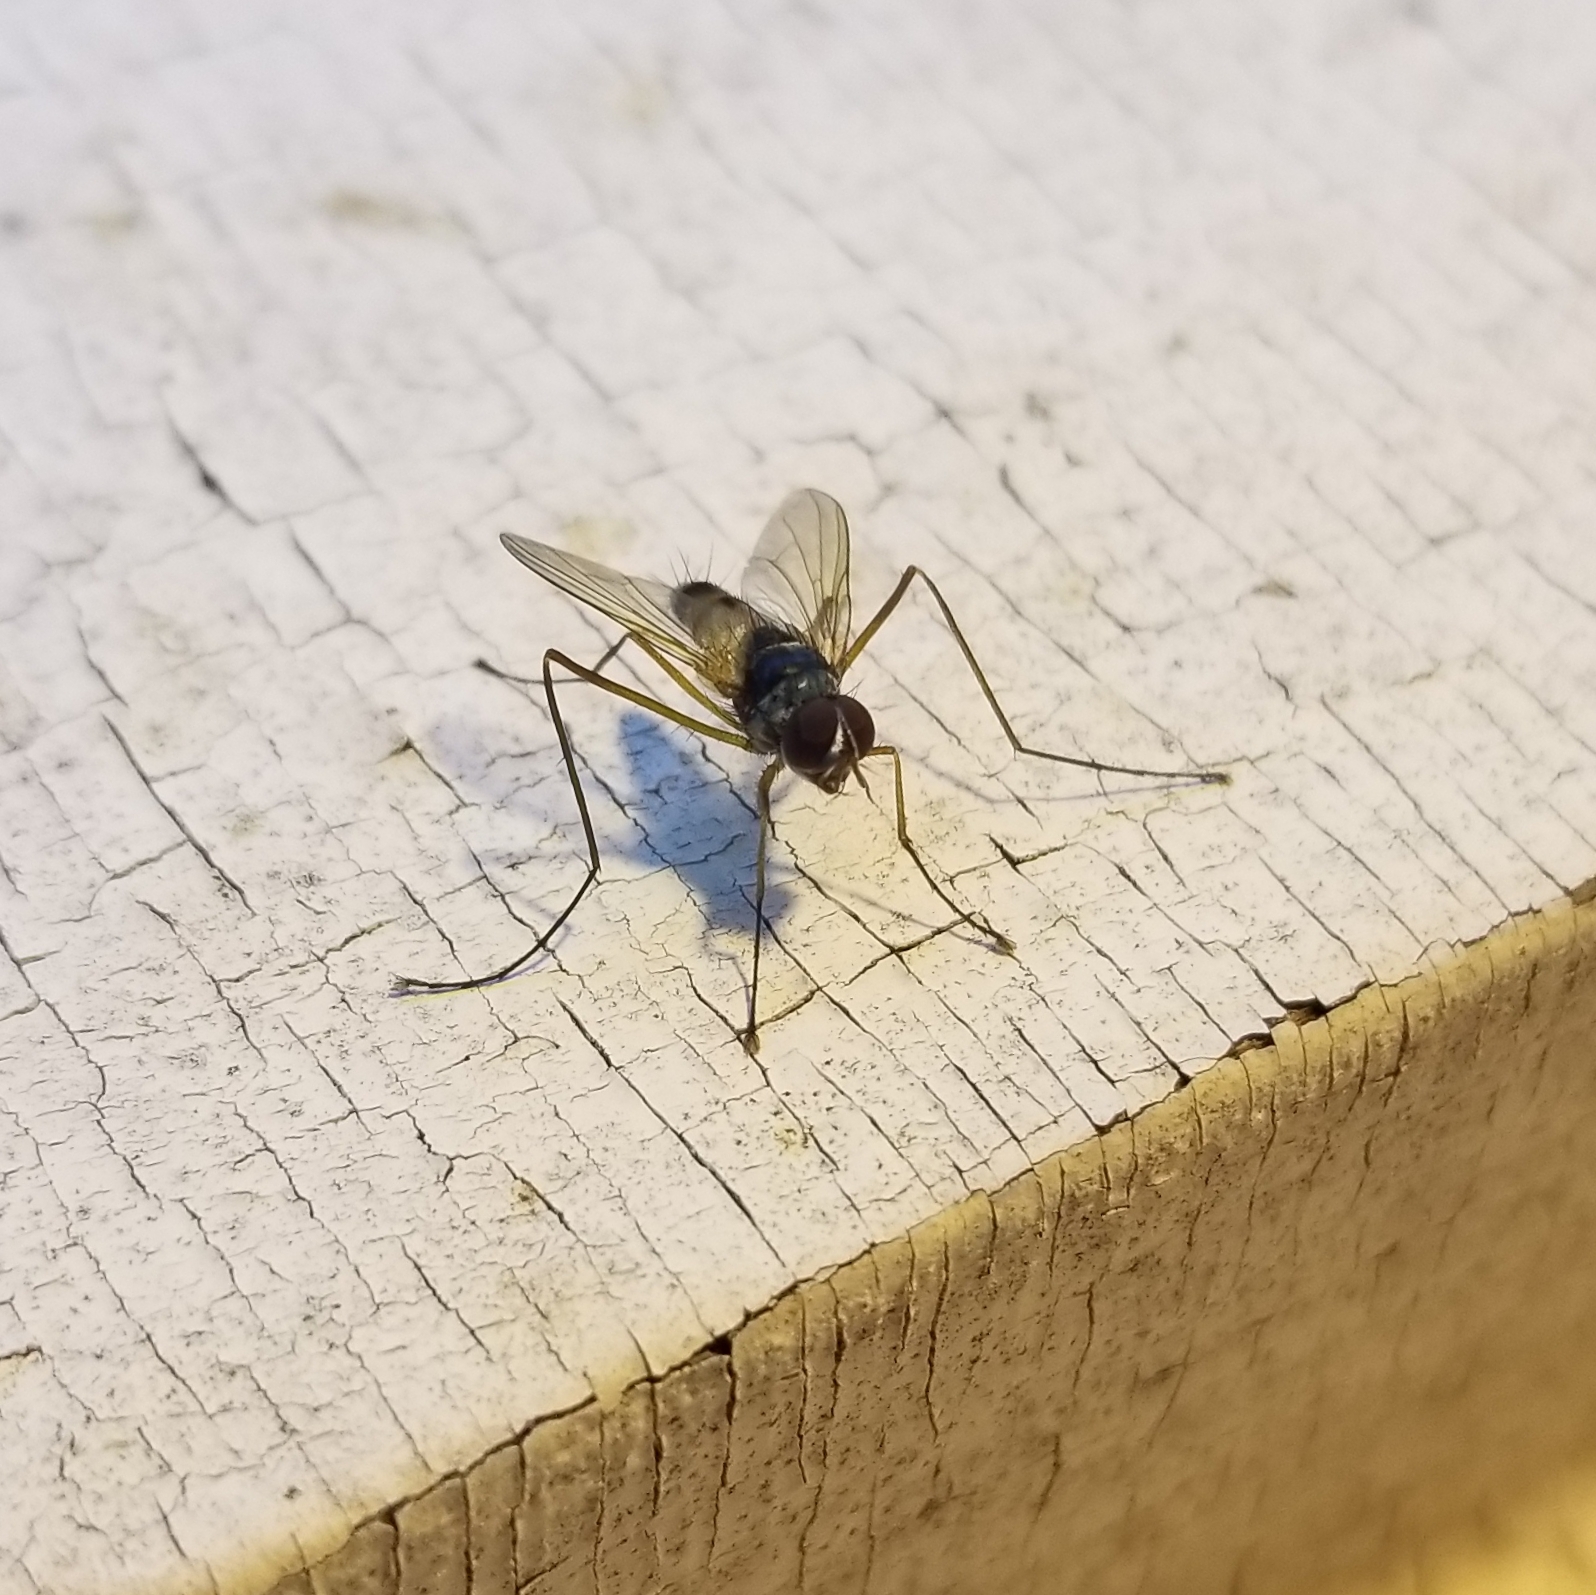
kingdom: Animalia
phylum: Arthropoda
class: Insecta
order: Diptera
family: Tachinidae
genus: Cholomyia
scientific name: Cholomyia inaequipes
